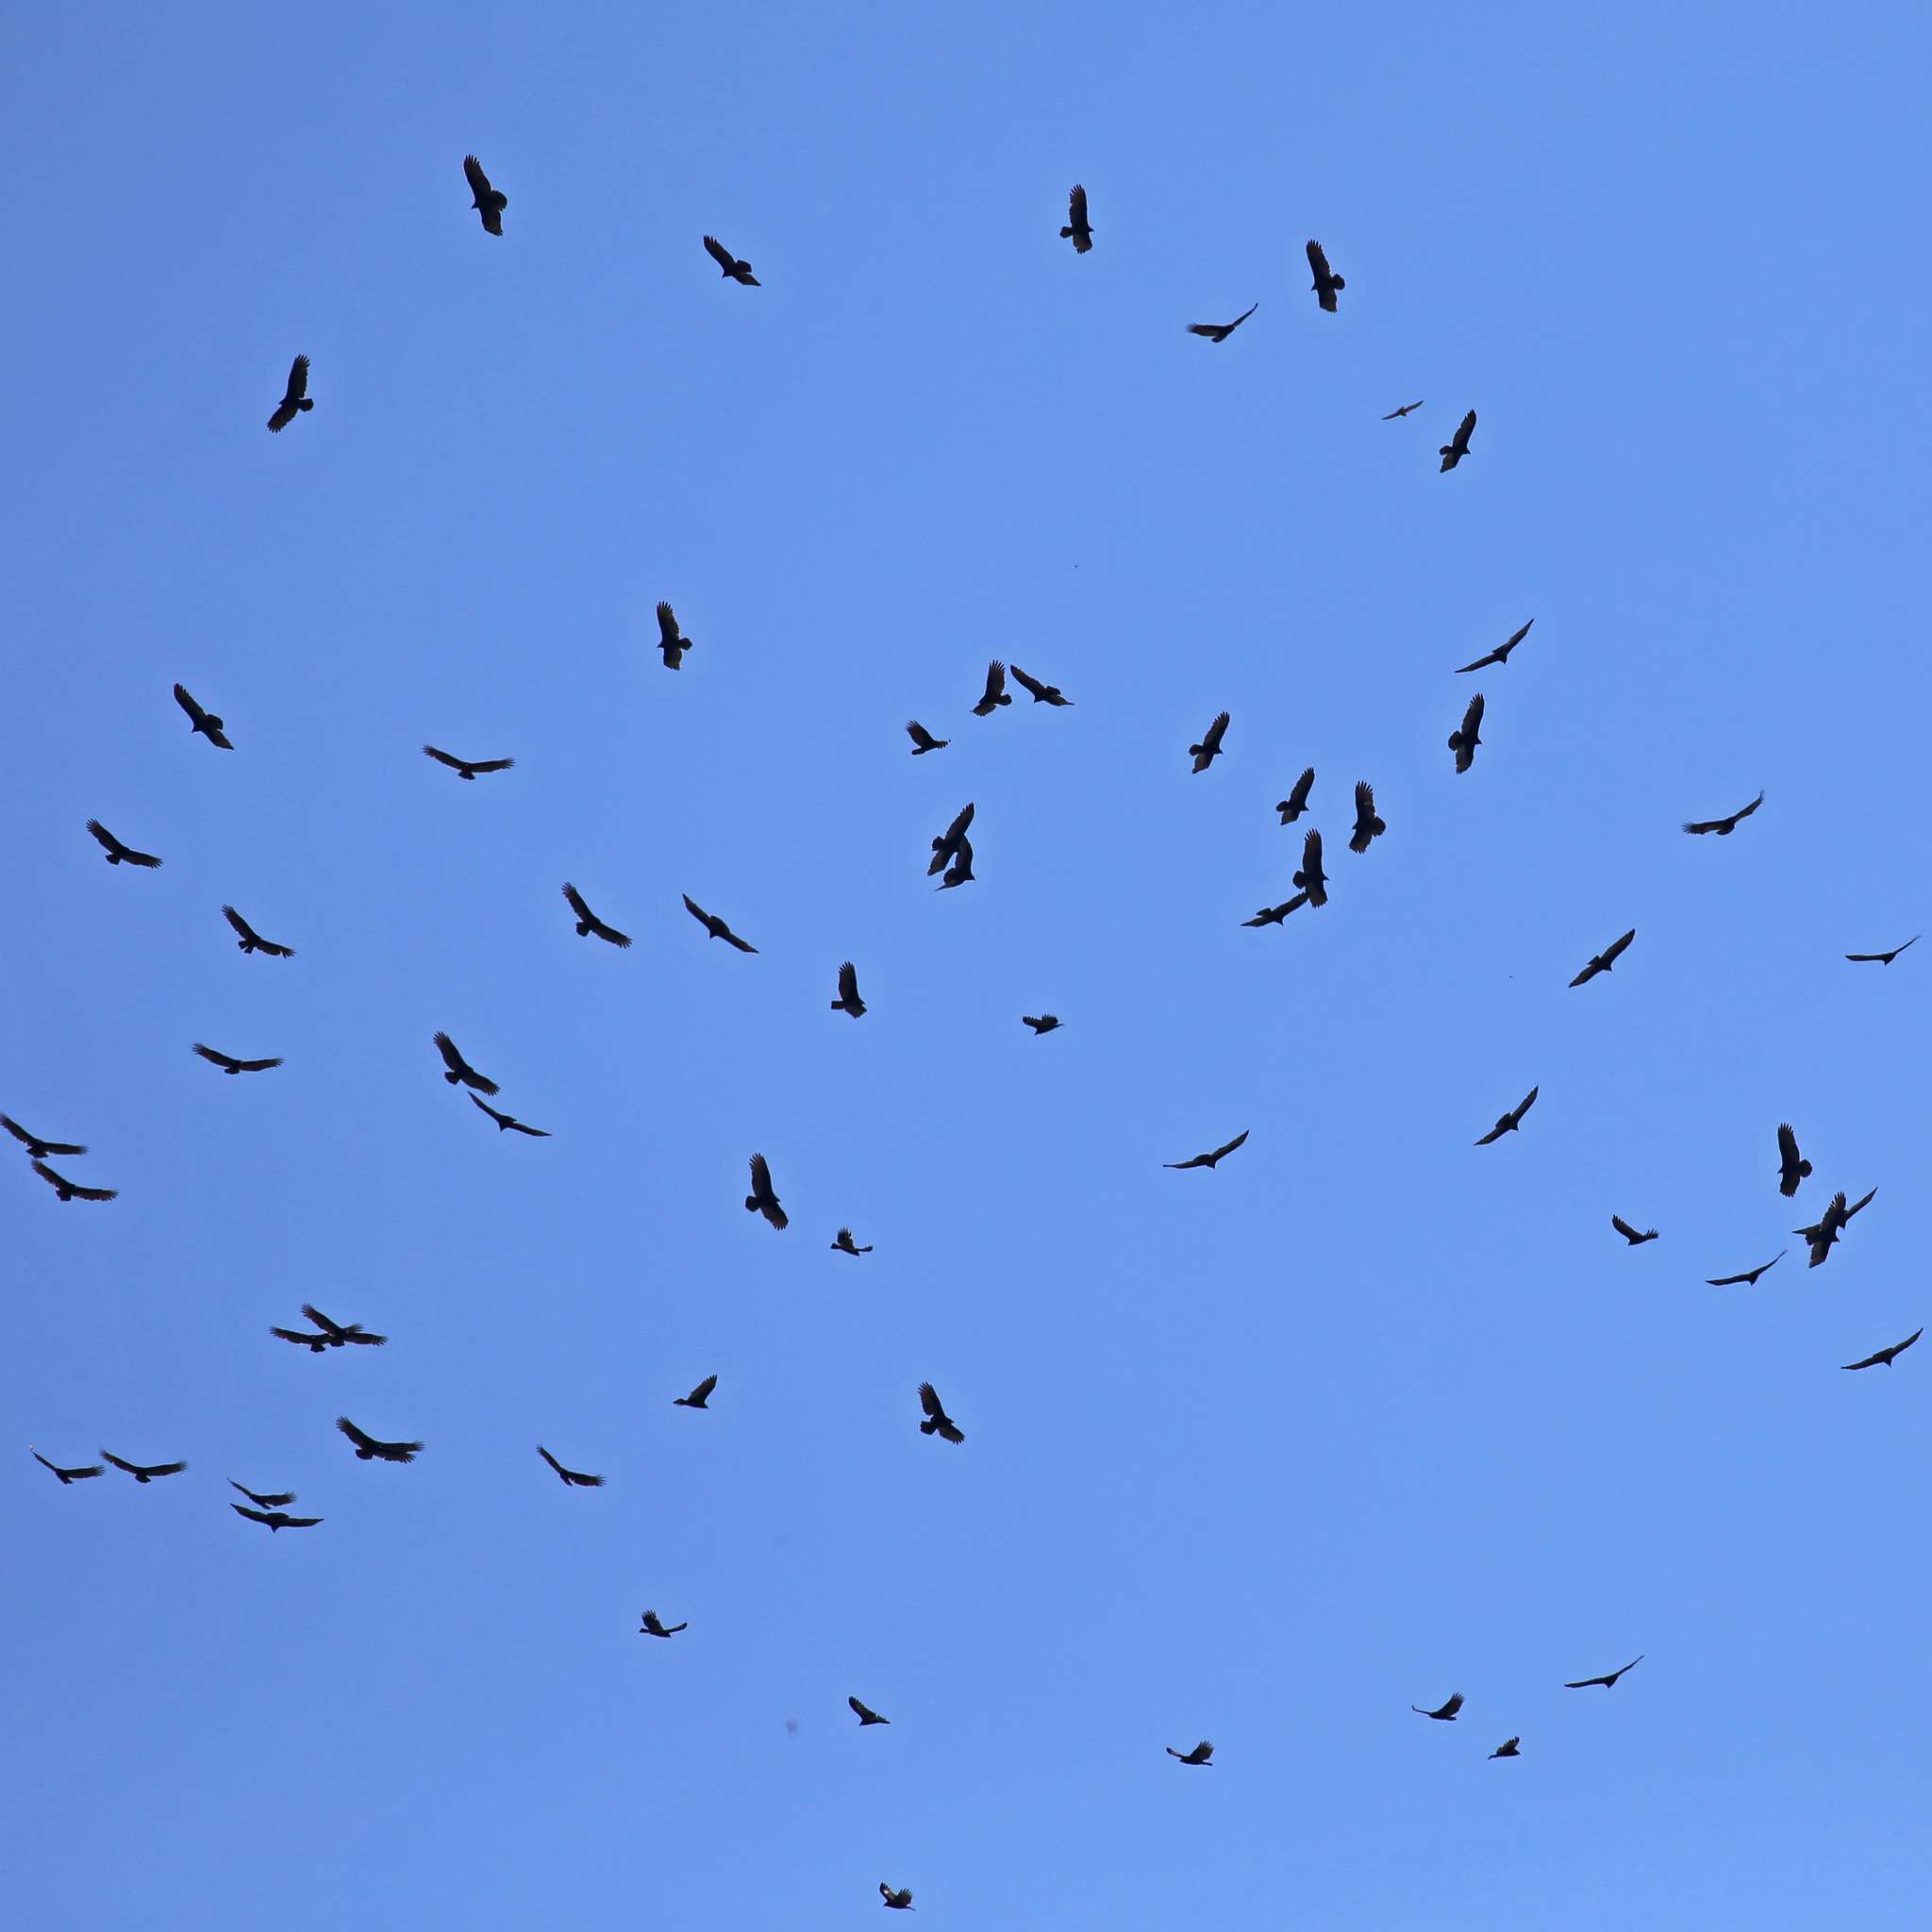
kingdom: Animalia
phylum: Chordata
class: Aves
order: Accipitriformes
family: Cathartidae
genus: Cathartes
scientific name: Cathartes aura
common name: Turkey vulture
